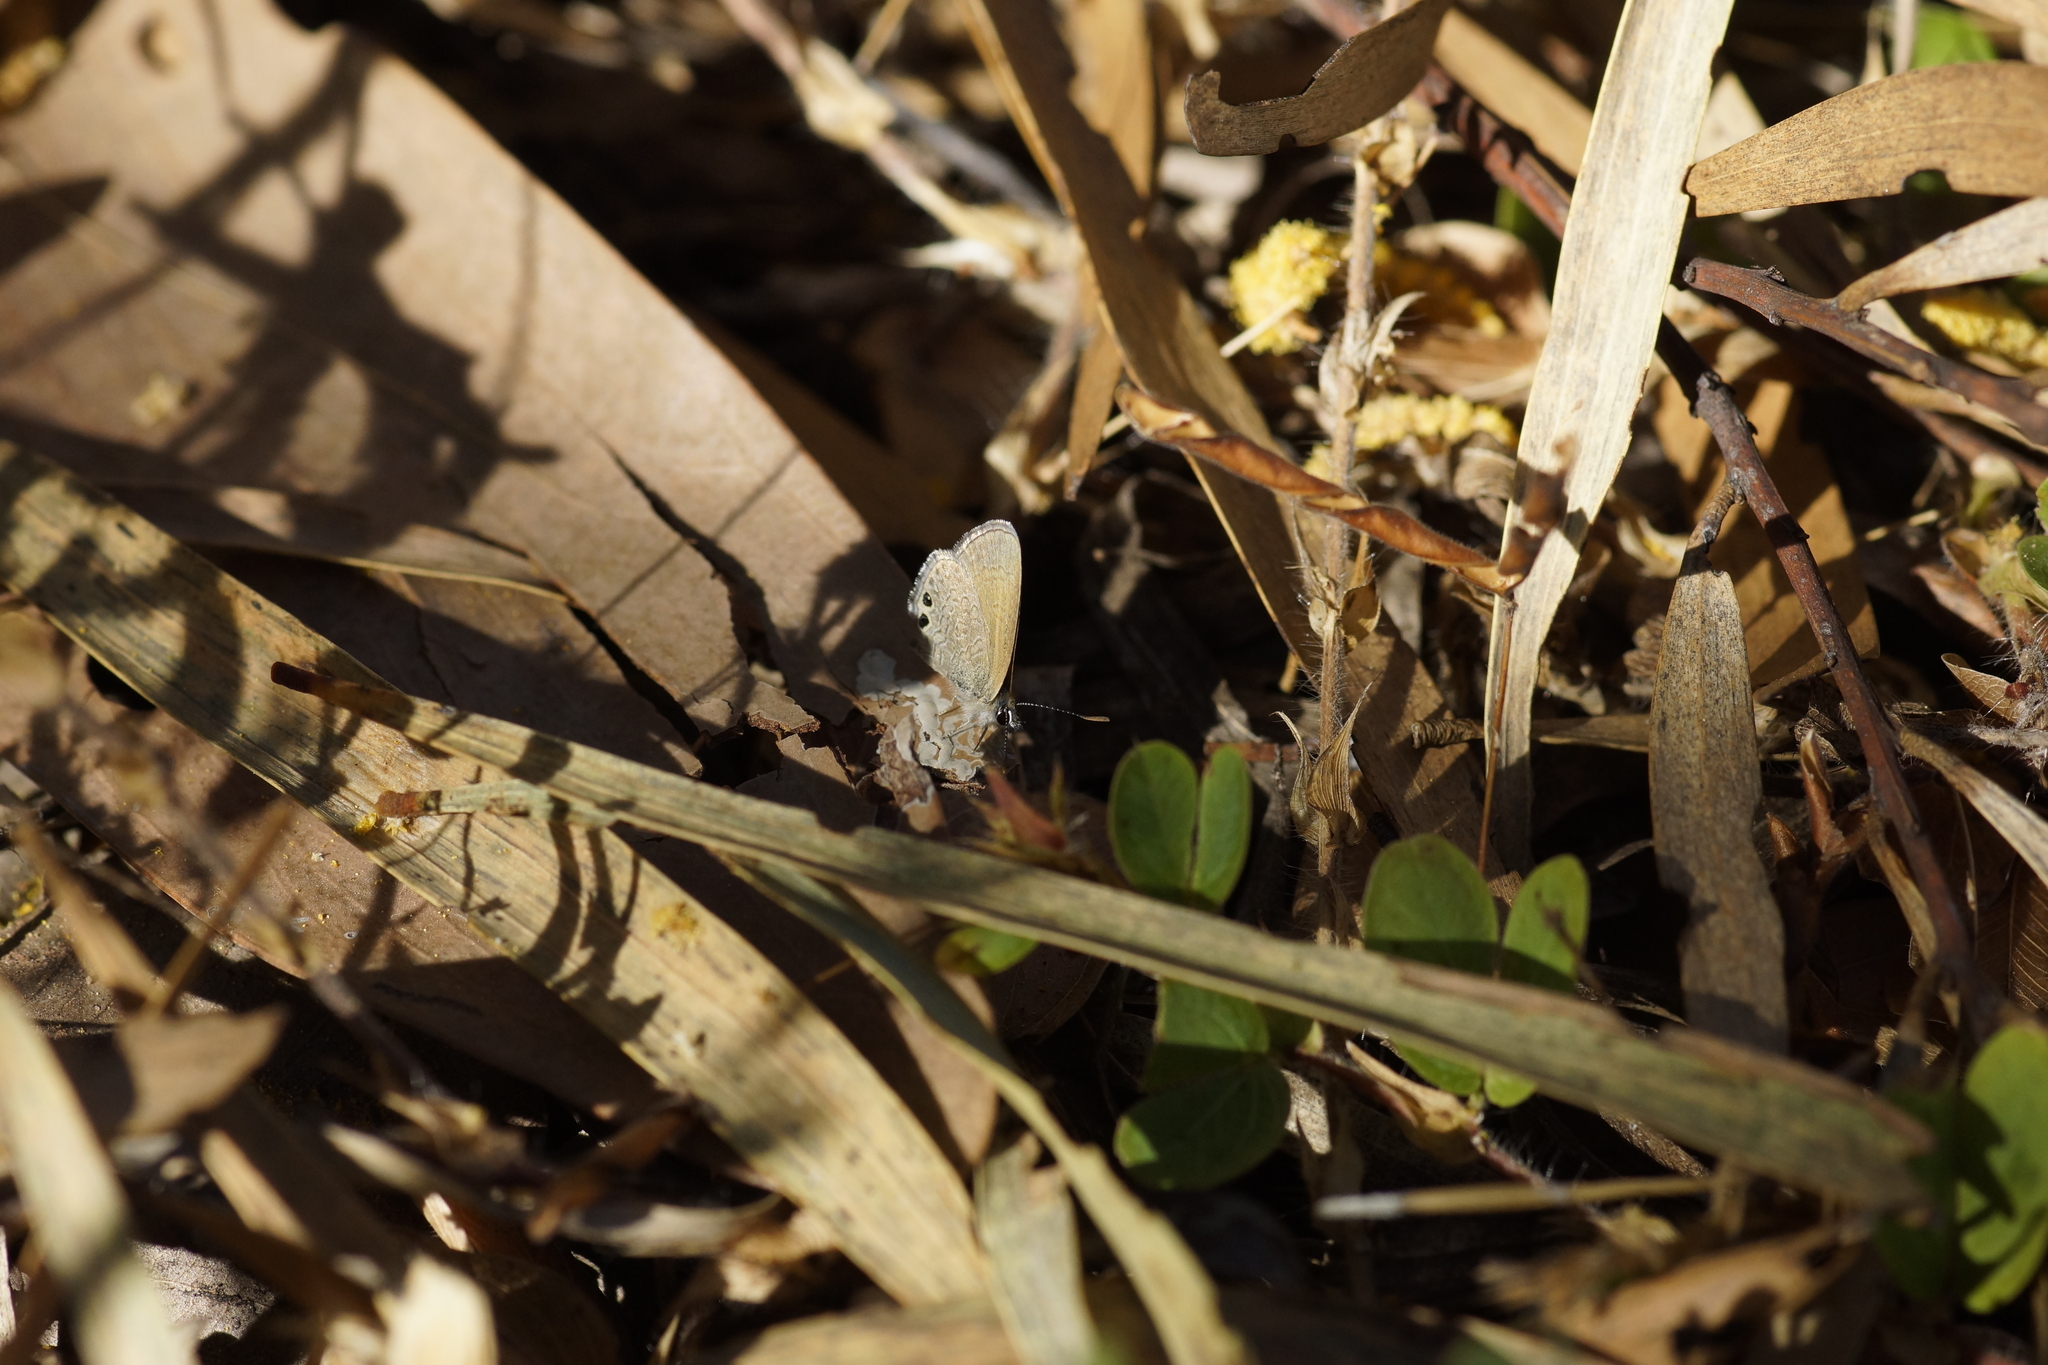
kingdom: Animalia
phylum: Arthropoda
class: Insecta
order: Lepidoptera
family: Lycaenidae
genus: Nacaduba
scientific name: Nacaduba biocellata
